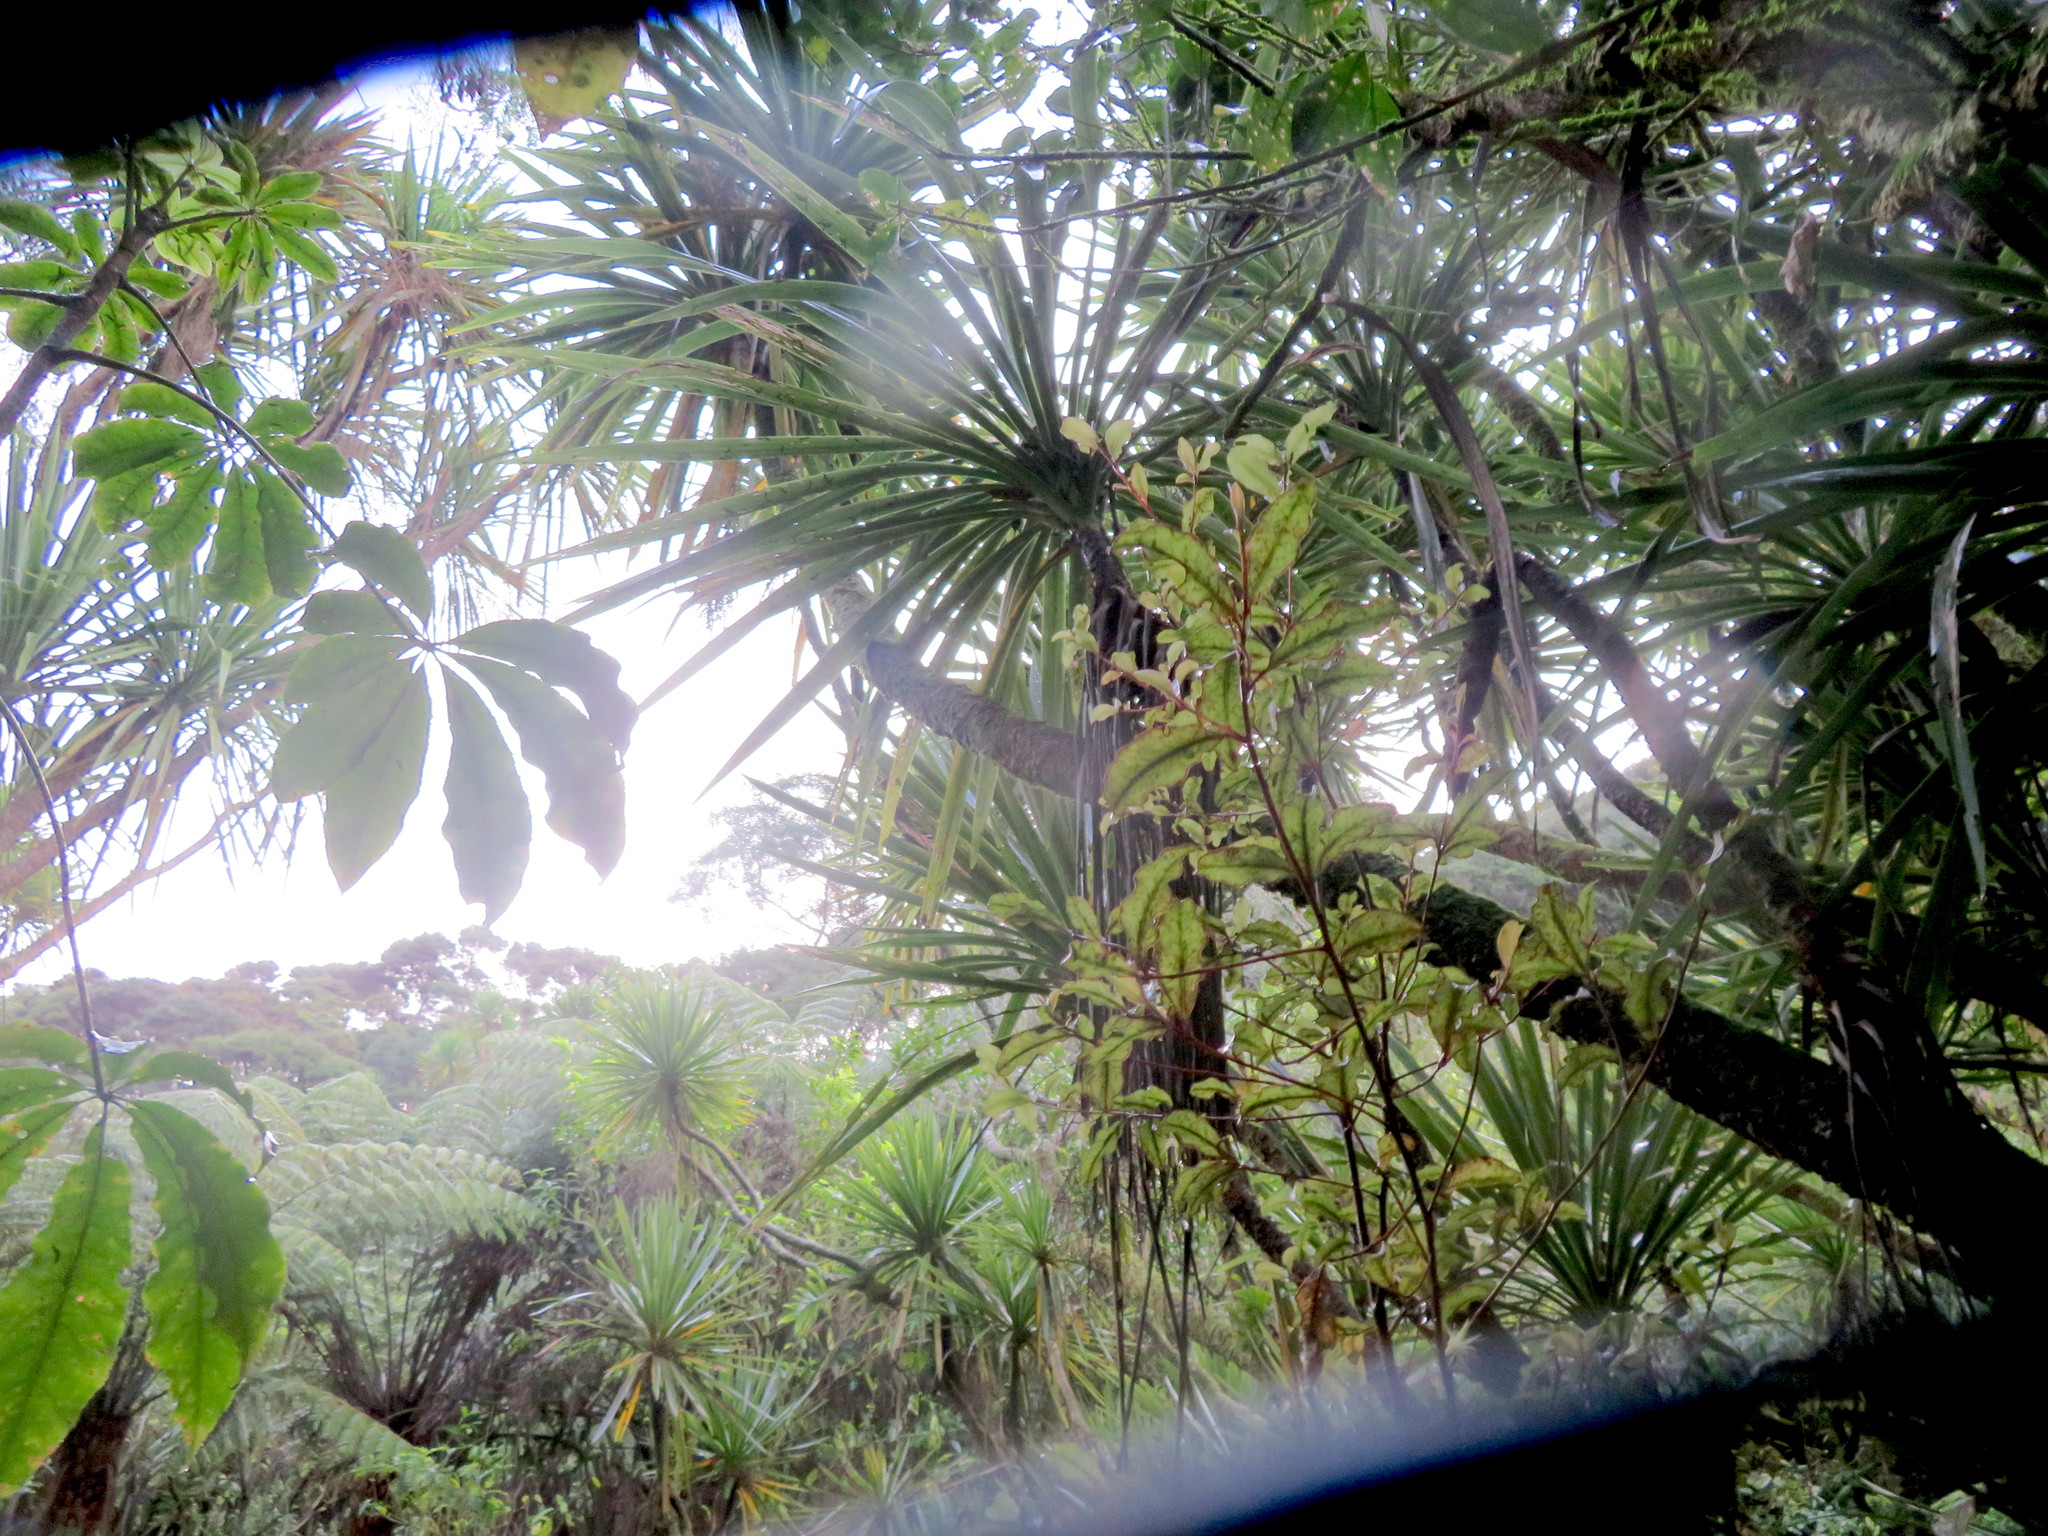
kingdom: Plantae
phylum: Tracheophyta
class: Magnoliopsida
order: Apiales
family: Araliaceae
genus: Schefflera
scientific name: Schefflera digitata
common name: Pate
